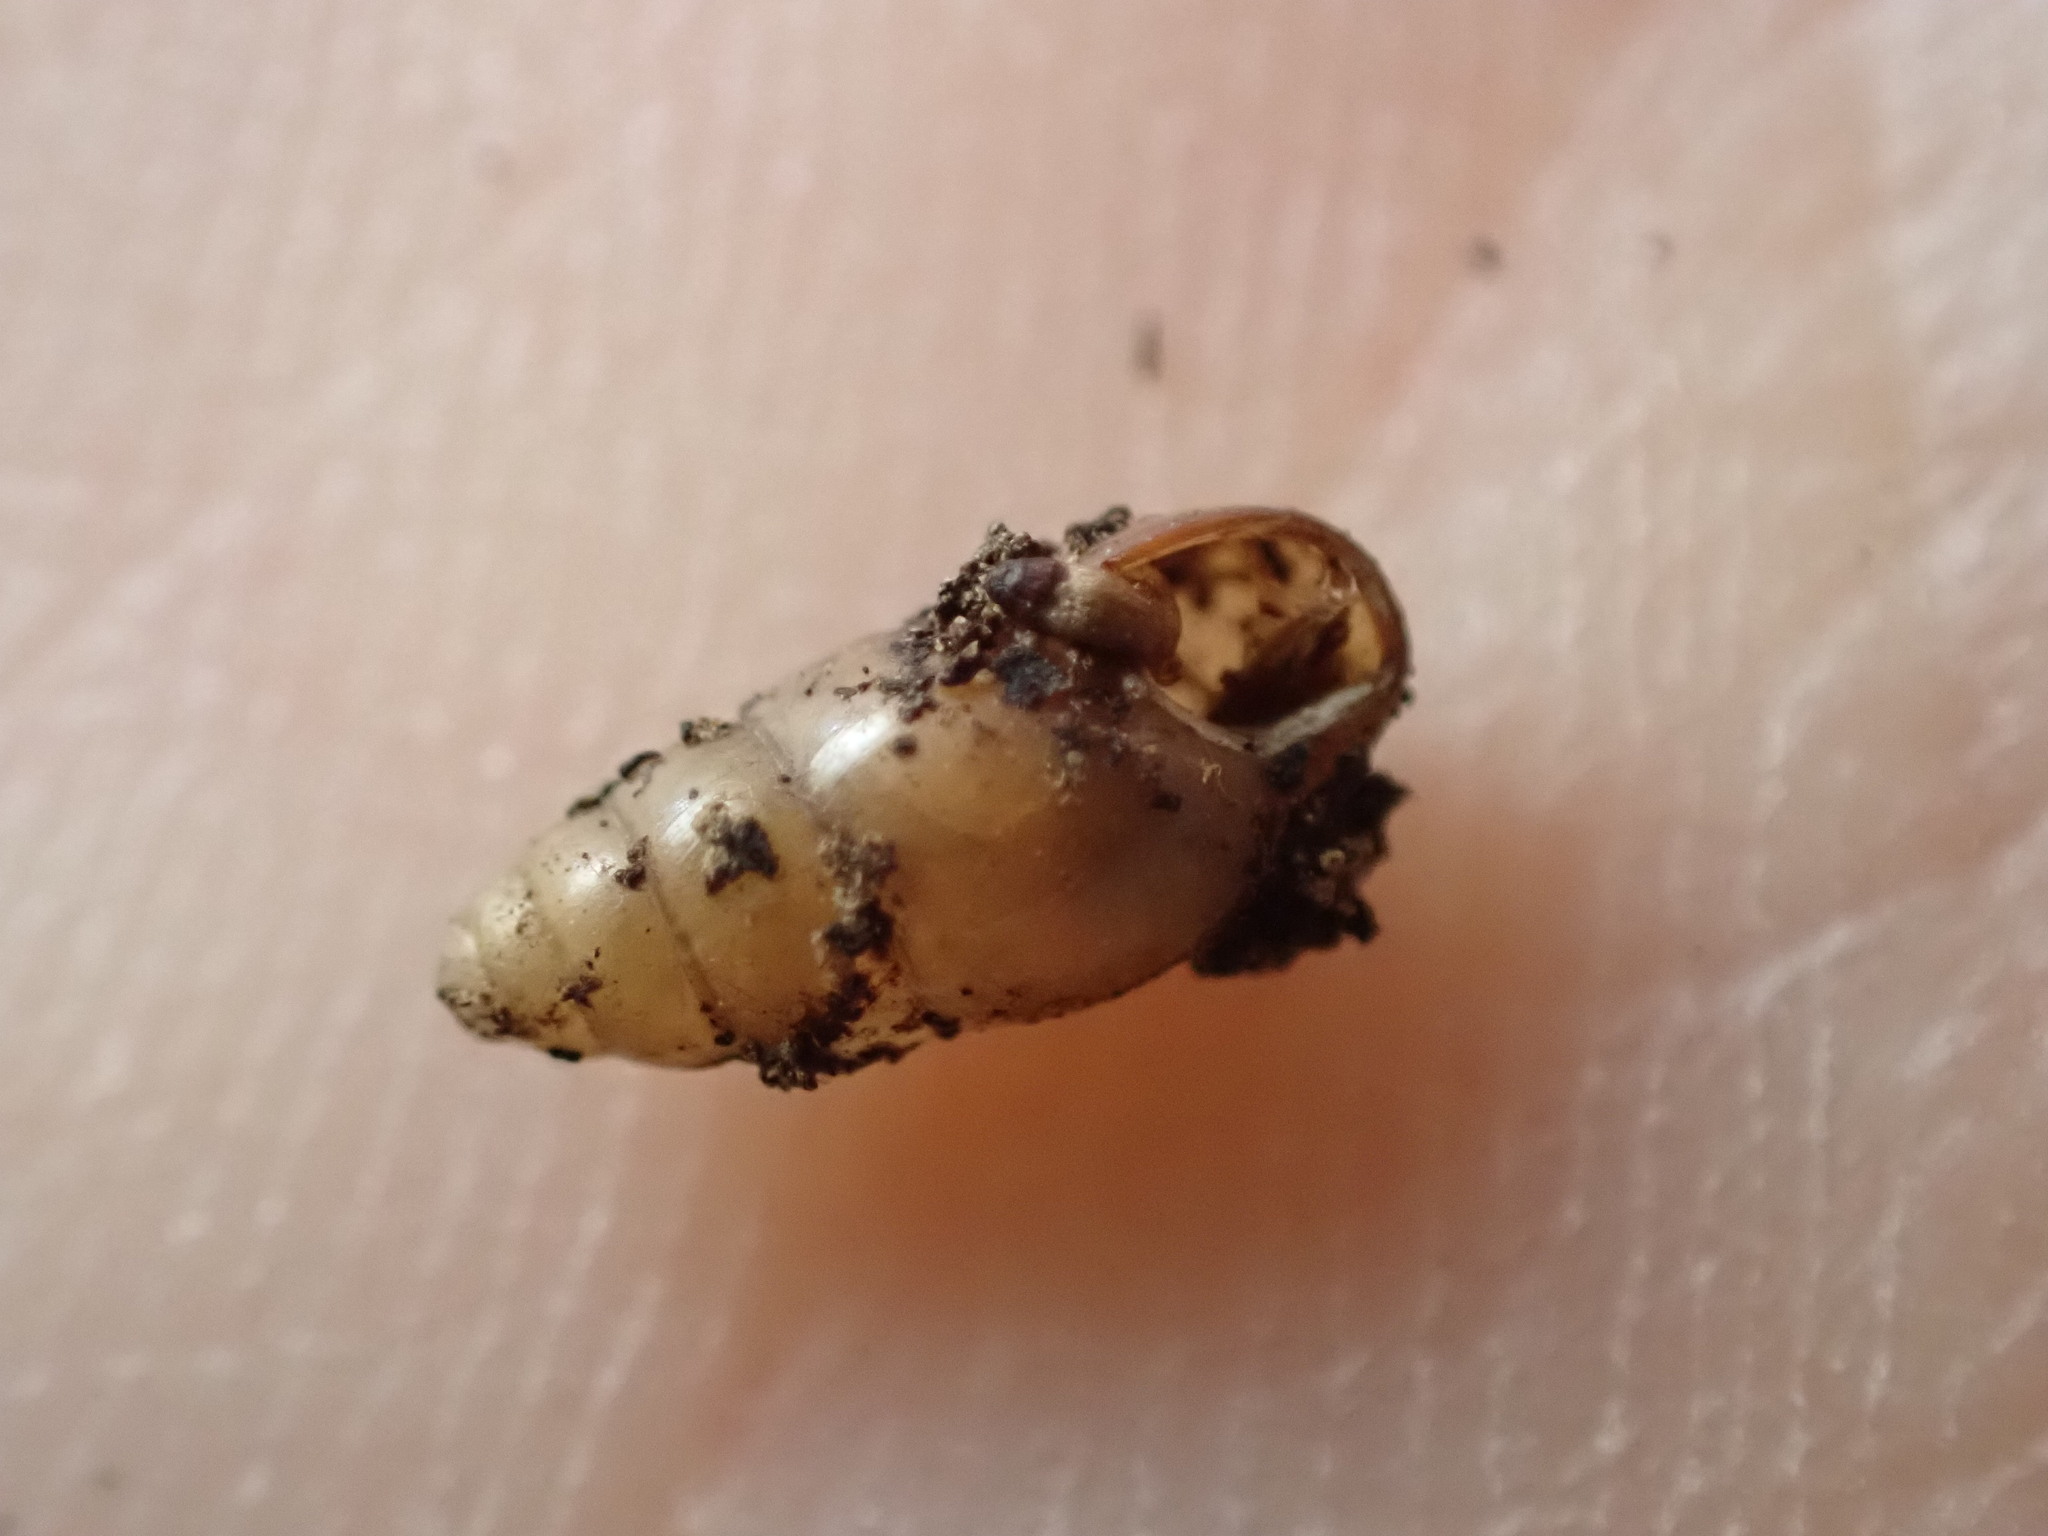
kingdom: Animalia
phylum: Mollusca
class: Gastropoda
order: Stylommatophora
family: Cochlicopidae
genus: Cochlicopa
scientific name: Cochlicopa lubrica
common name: Glossy pillar snail
